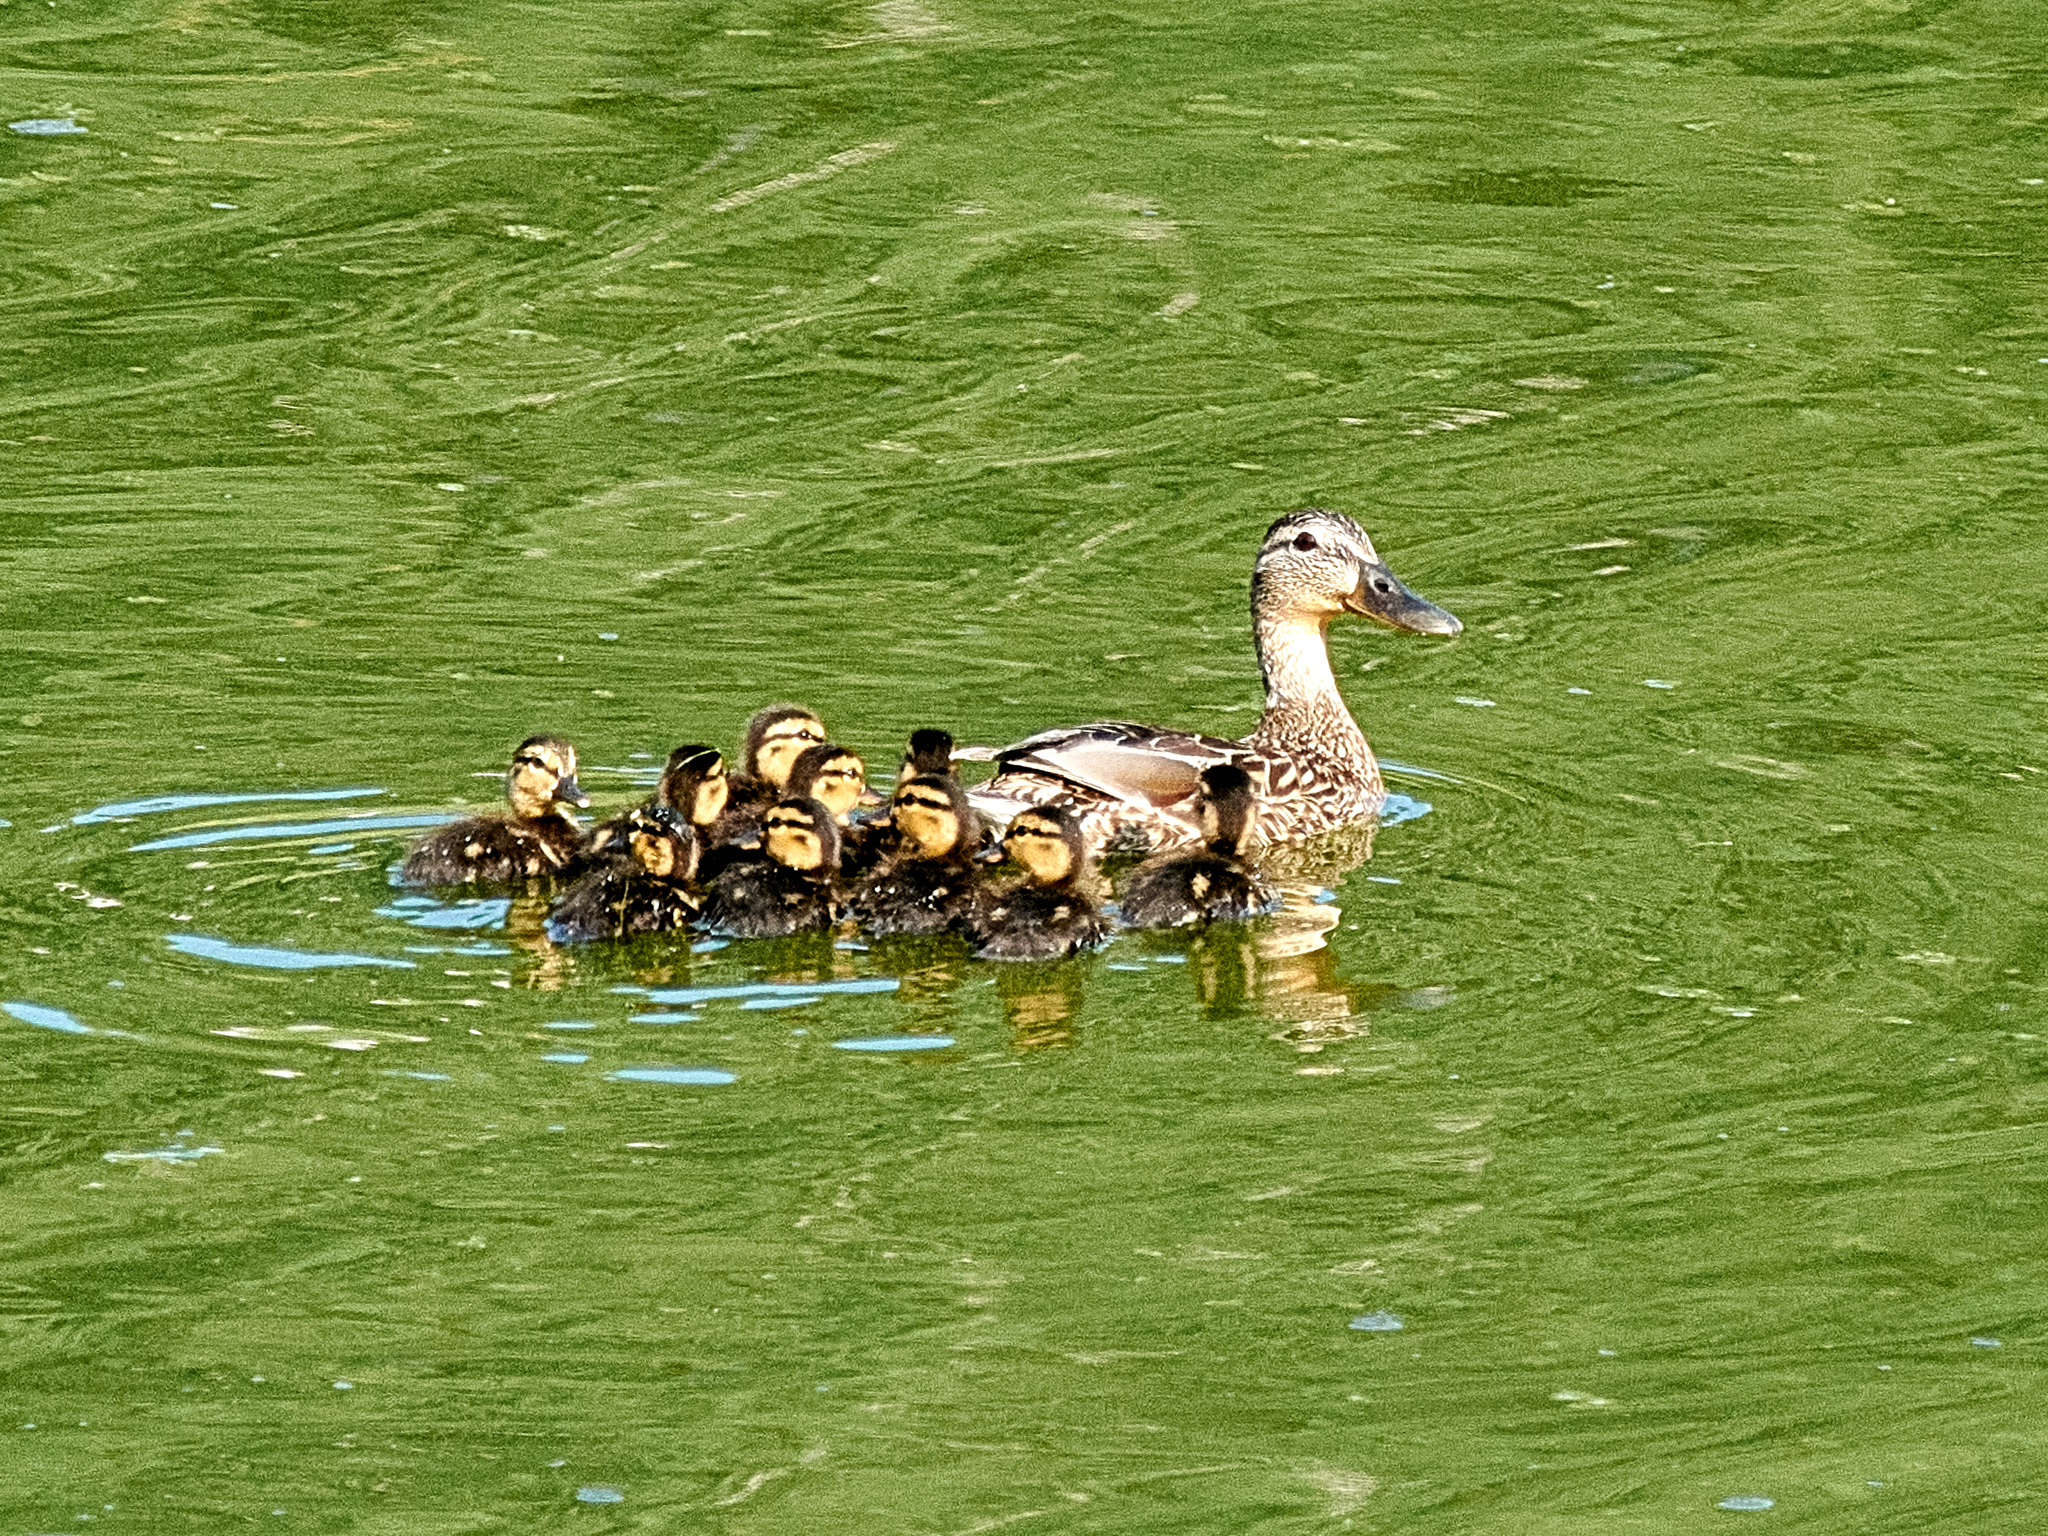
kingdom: Animalia
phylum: Chordata
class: Aves
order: Anseriformes
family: Anatidae
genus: Anas
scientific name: Anas platyrhynchos
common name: Mallard
